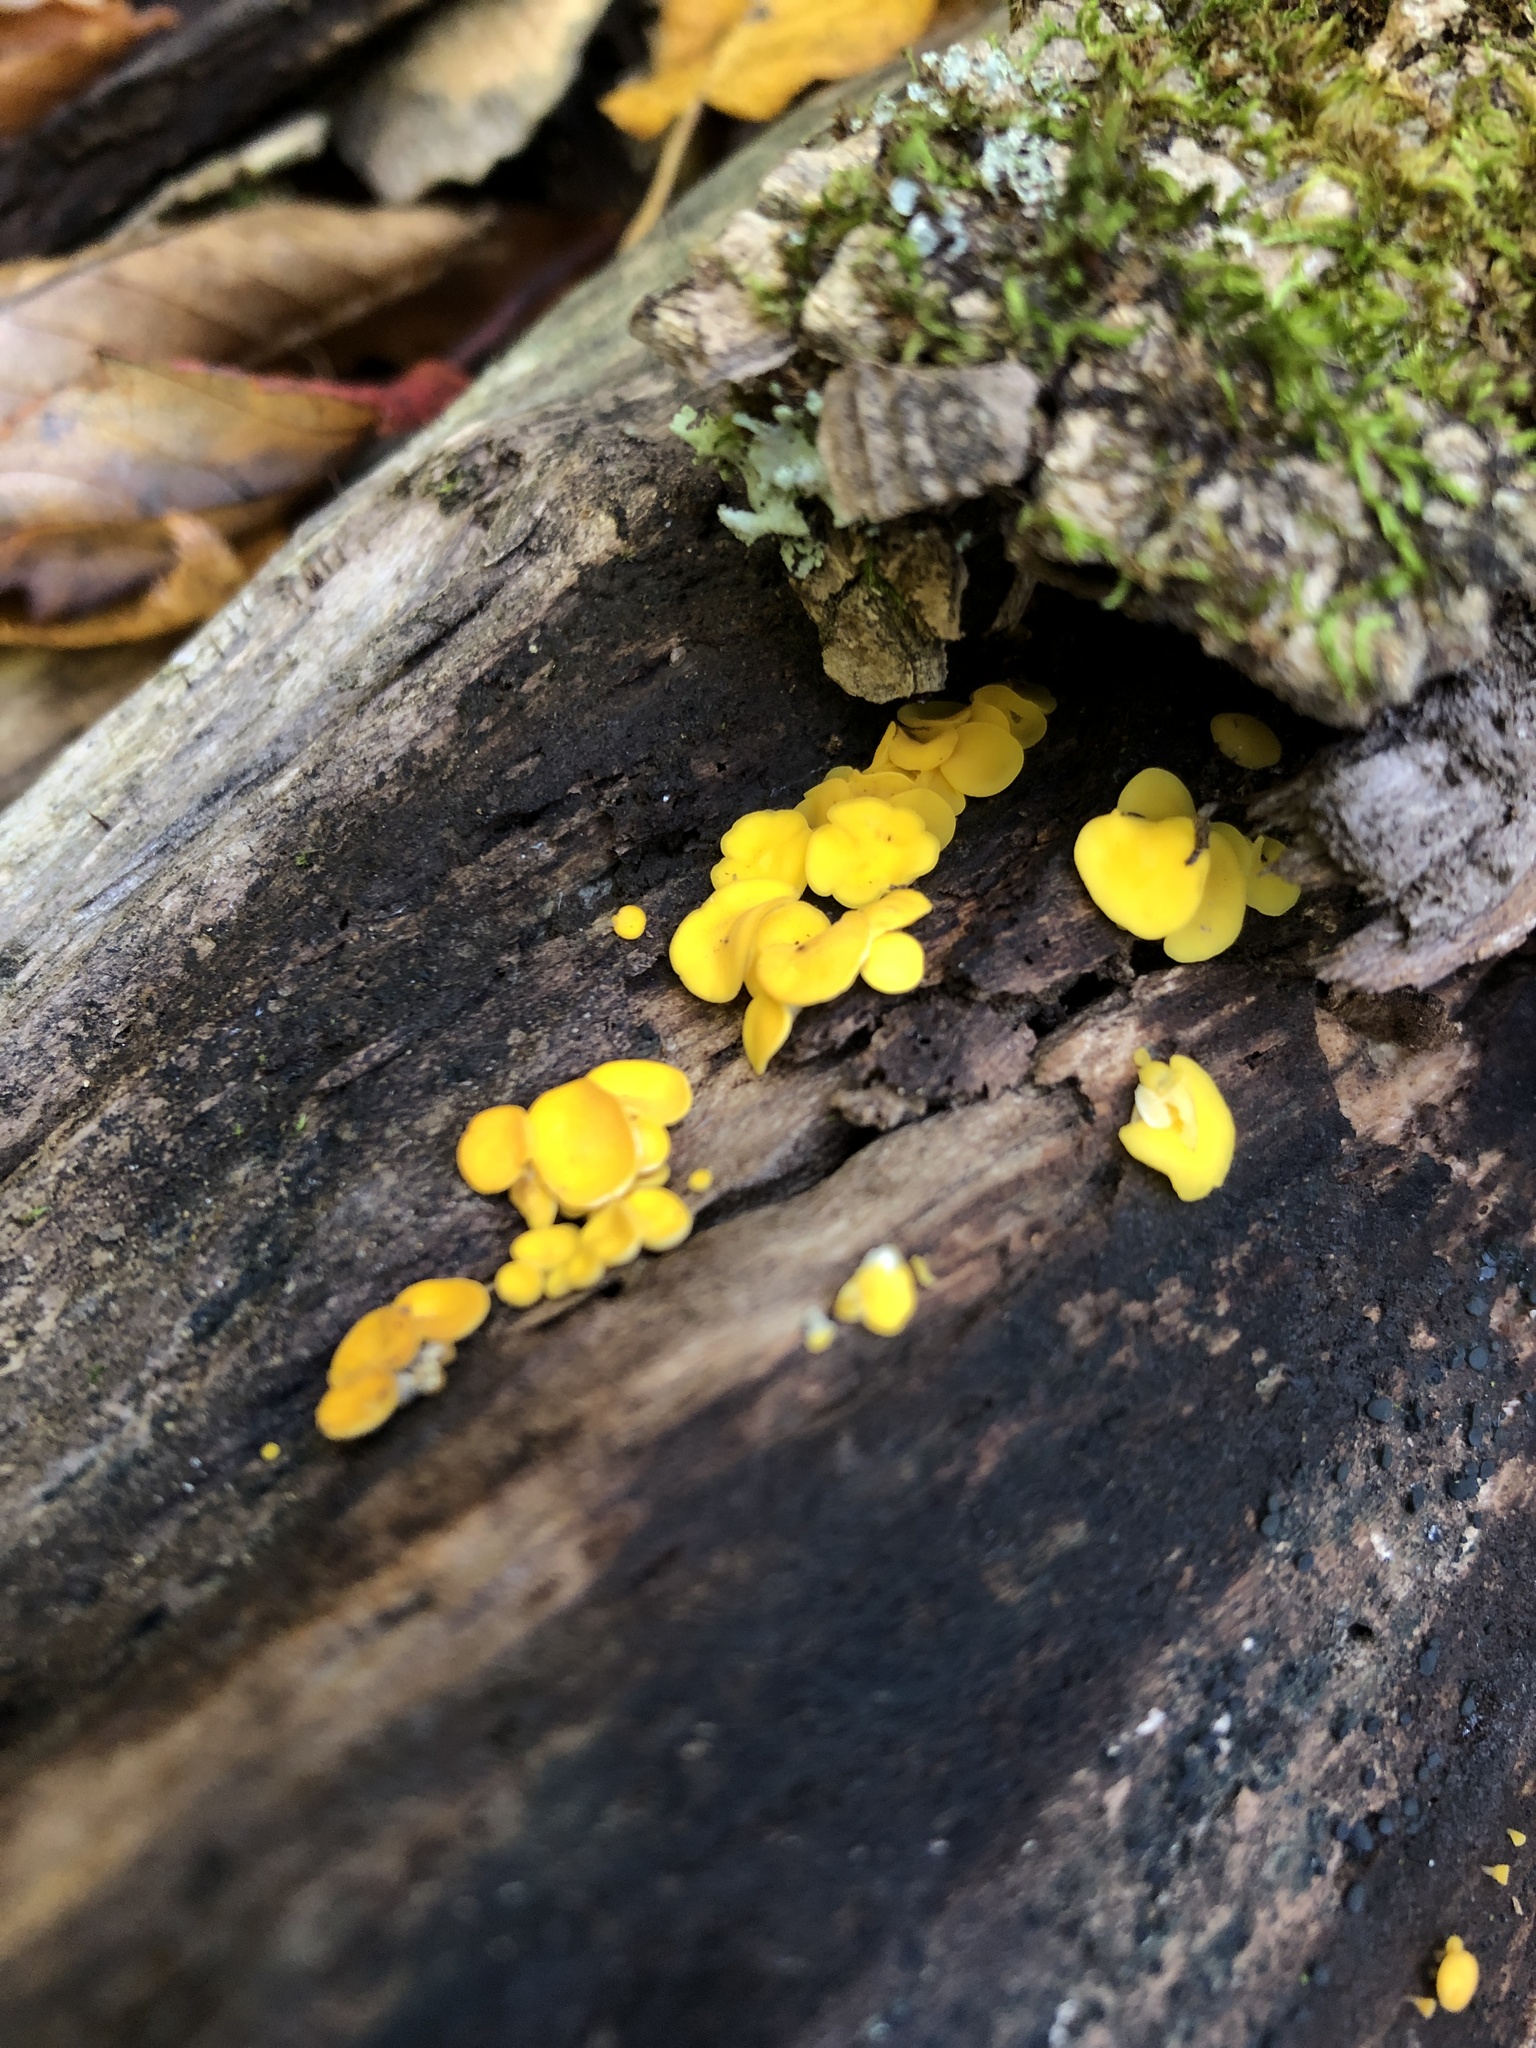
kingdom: Fungi
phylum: Ascomycota
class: Leotiomycetes
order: Helotiales
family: Pezizellaceae
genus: Calycina
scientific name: Calycina citrina
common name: Yellow fairy cups
